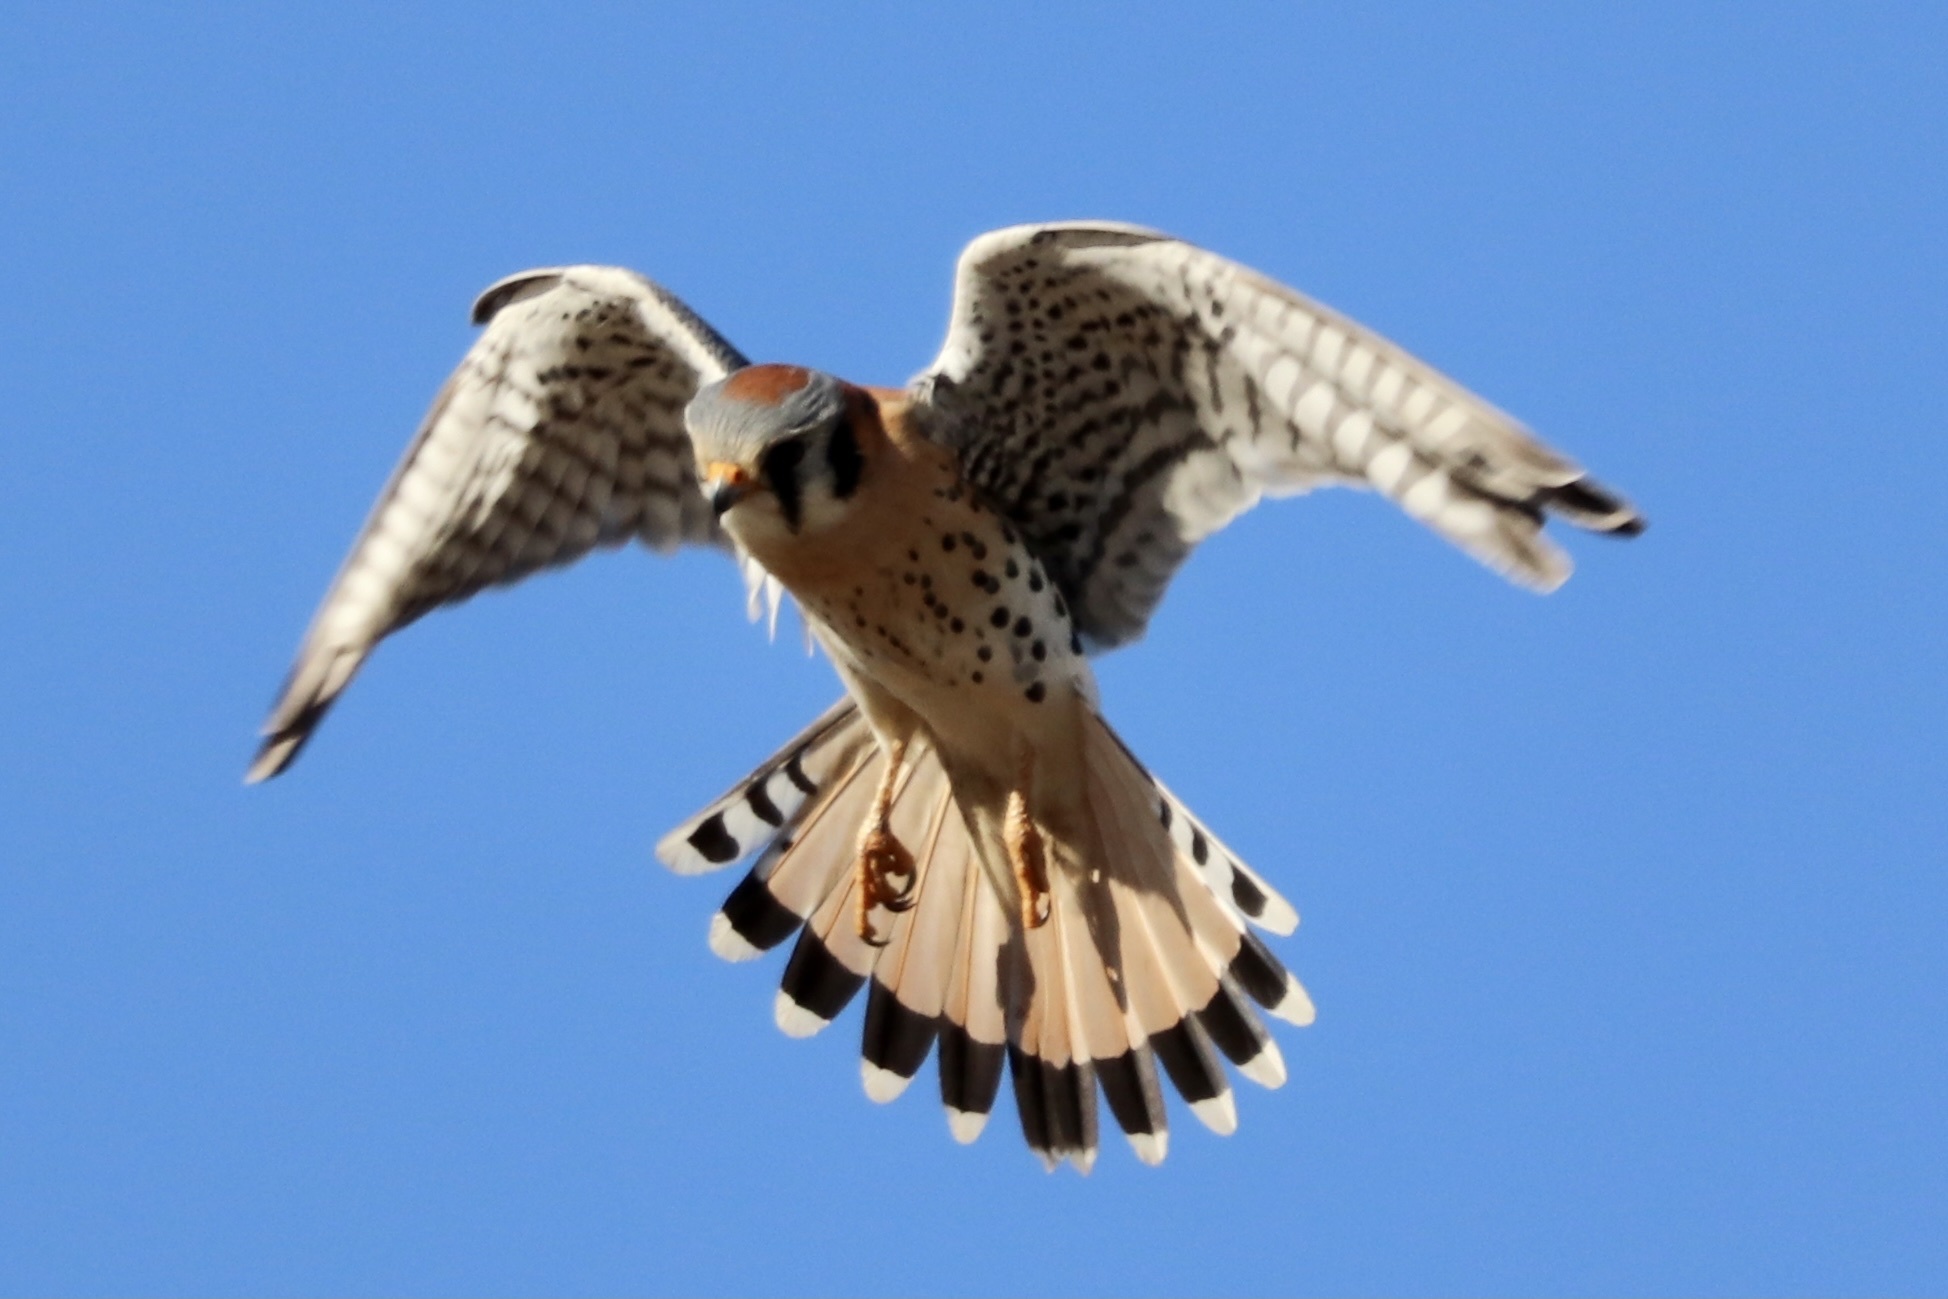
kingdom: Animalia
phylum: Chordata
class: Aves
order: Falconiformes
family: Falconidae
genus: Falco
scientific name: Falco sparverius
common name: American kestrel
